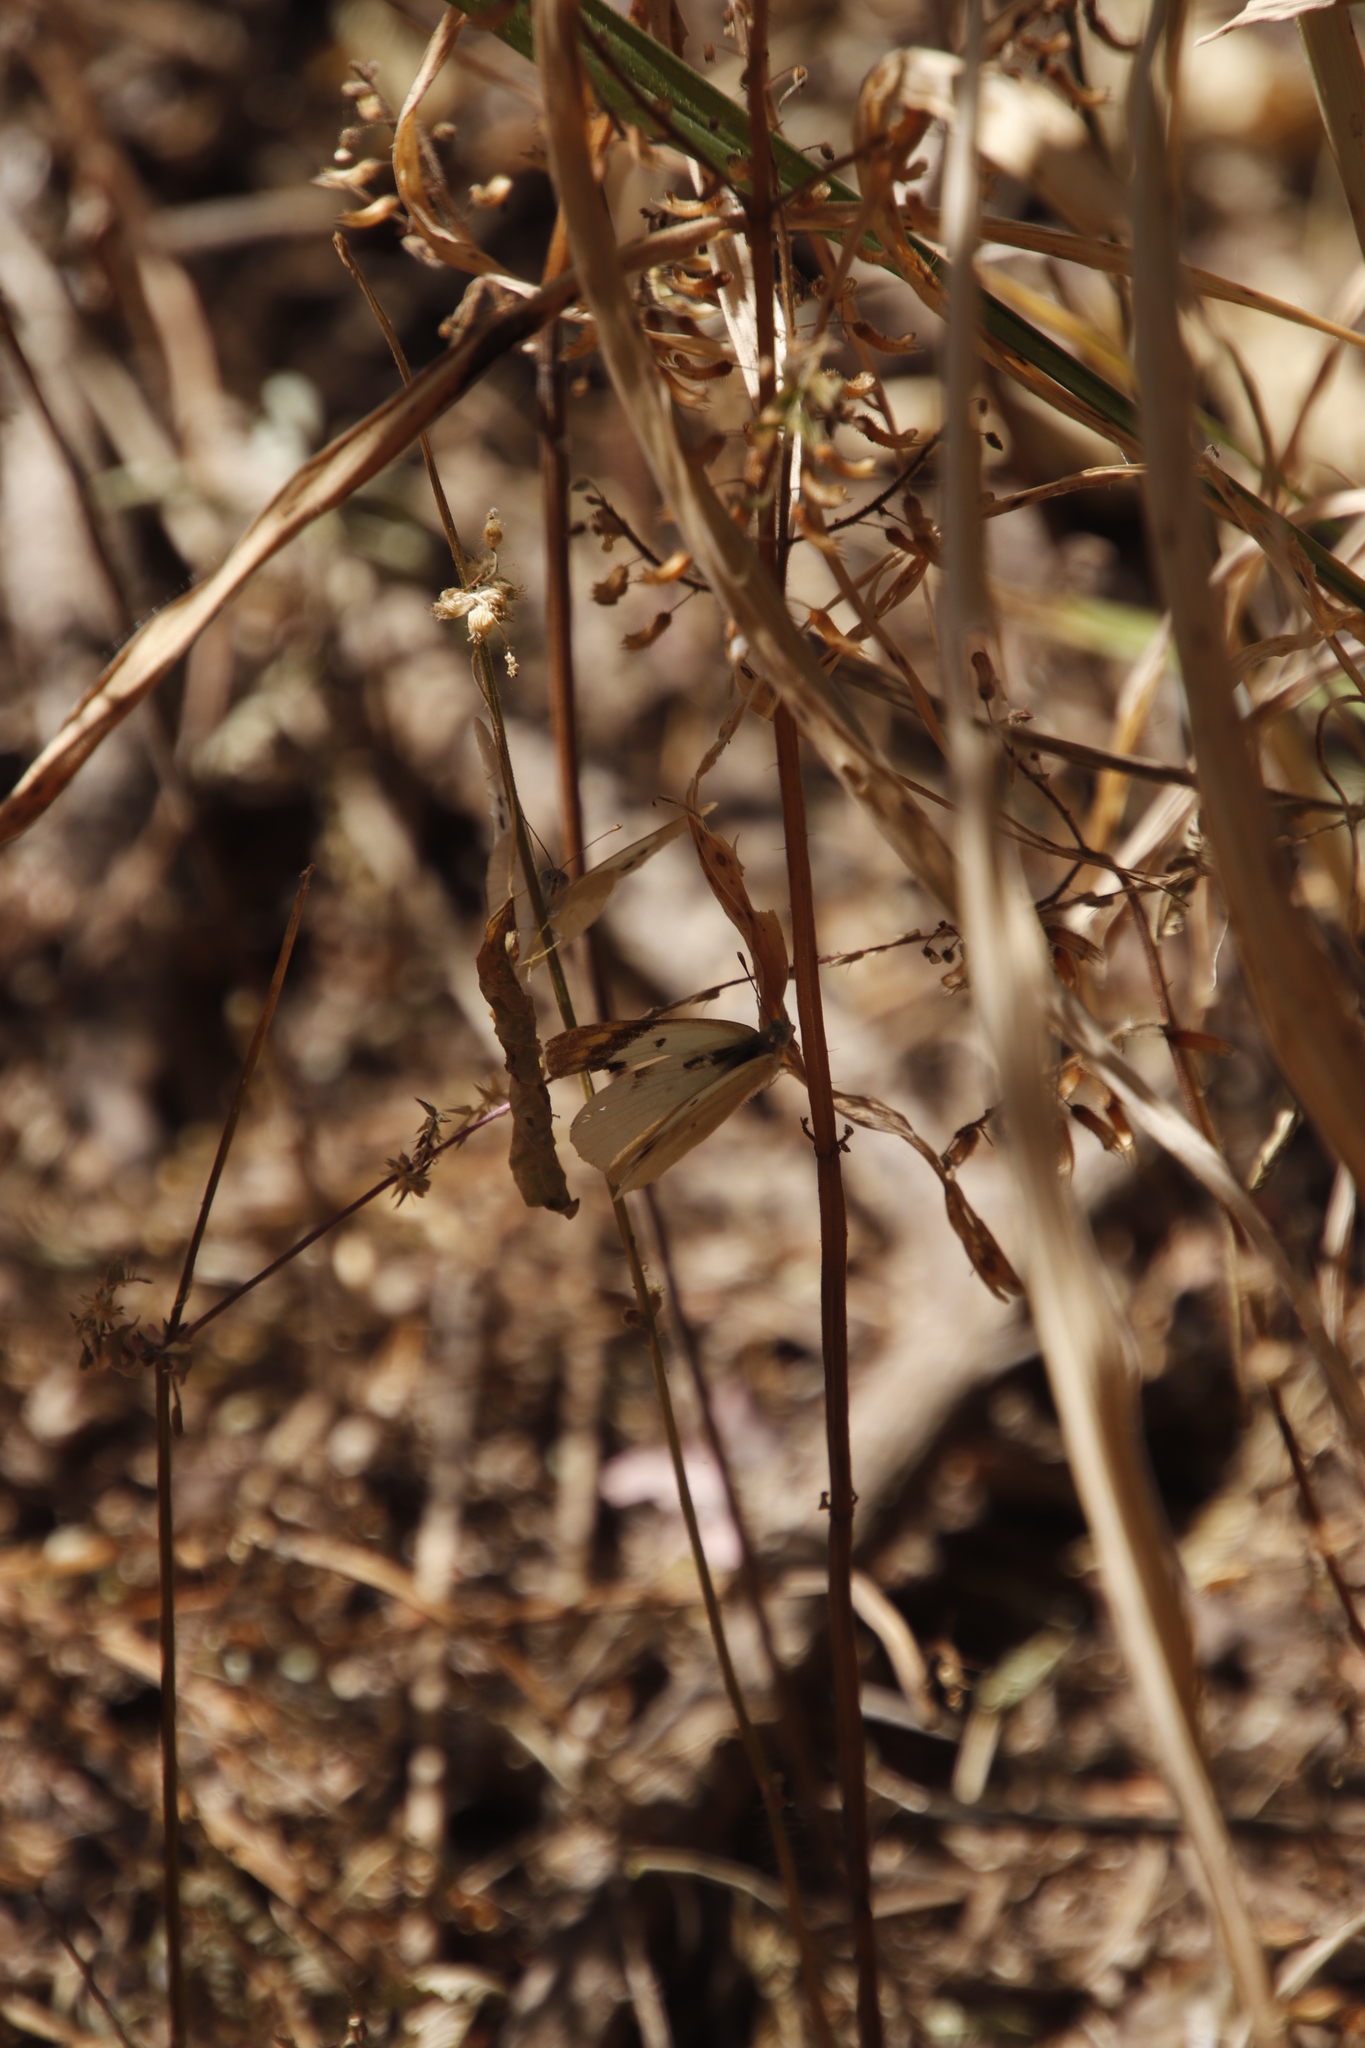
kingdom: Animalia
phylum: Arthropoda
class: Insecta
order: Lepidoptera
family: Pieridae
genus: Colotis
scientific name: Colotis eris
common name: Banded gold tip
